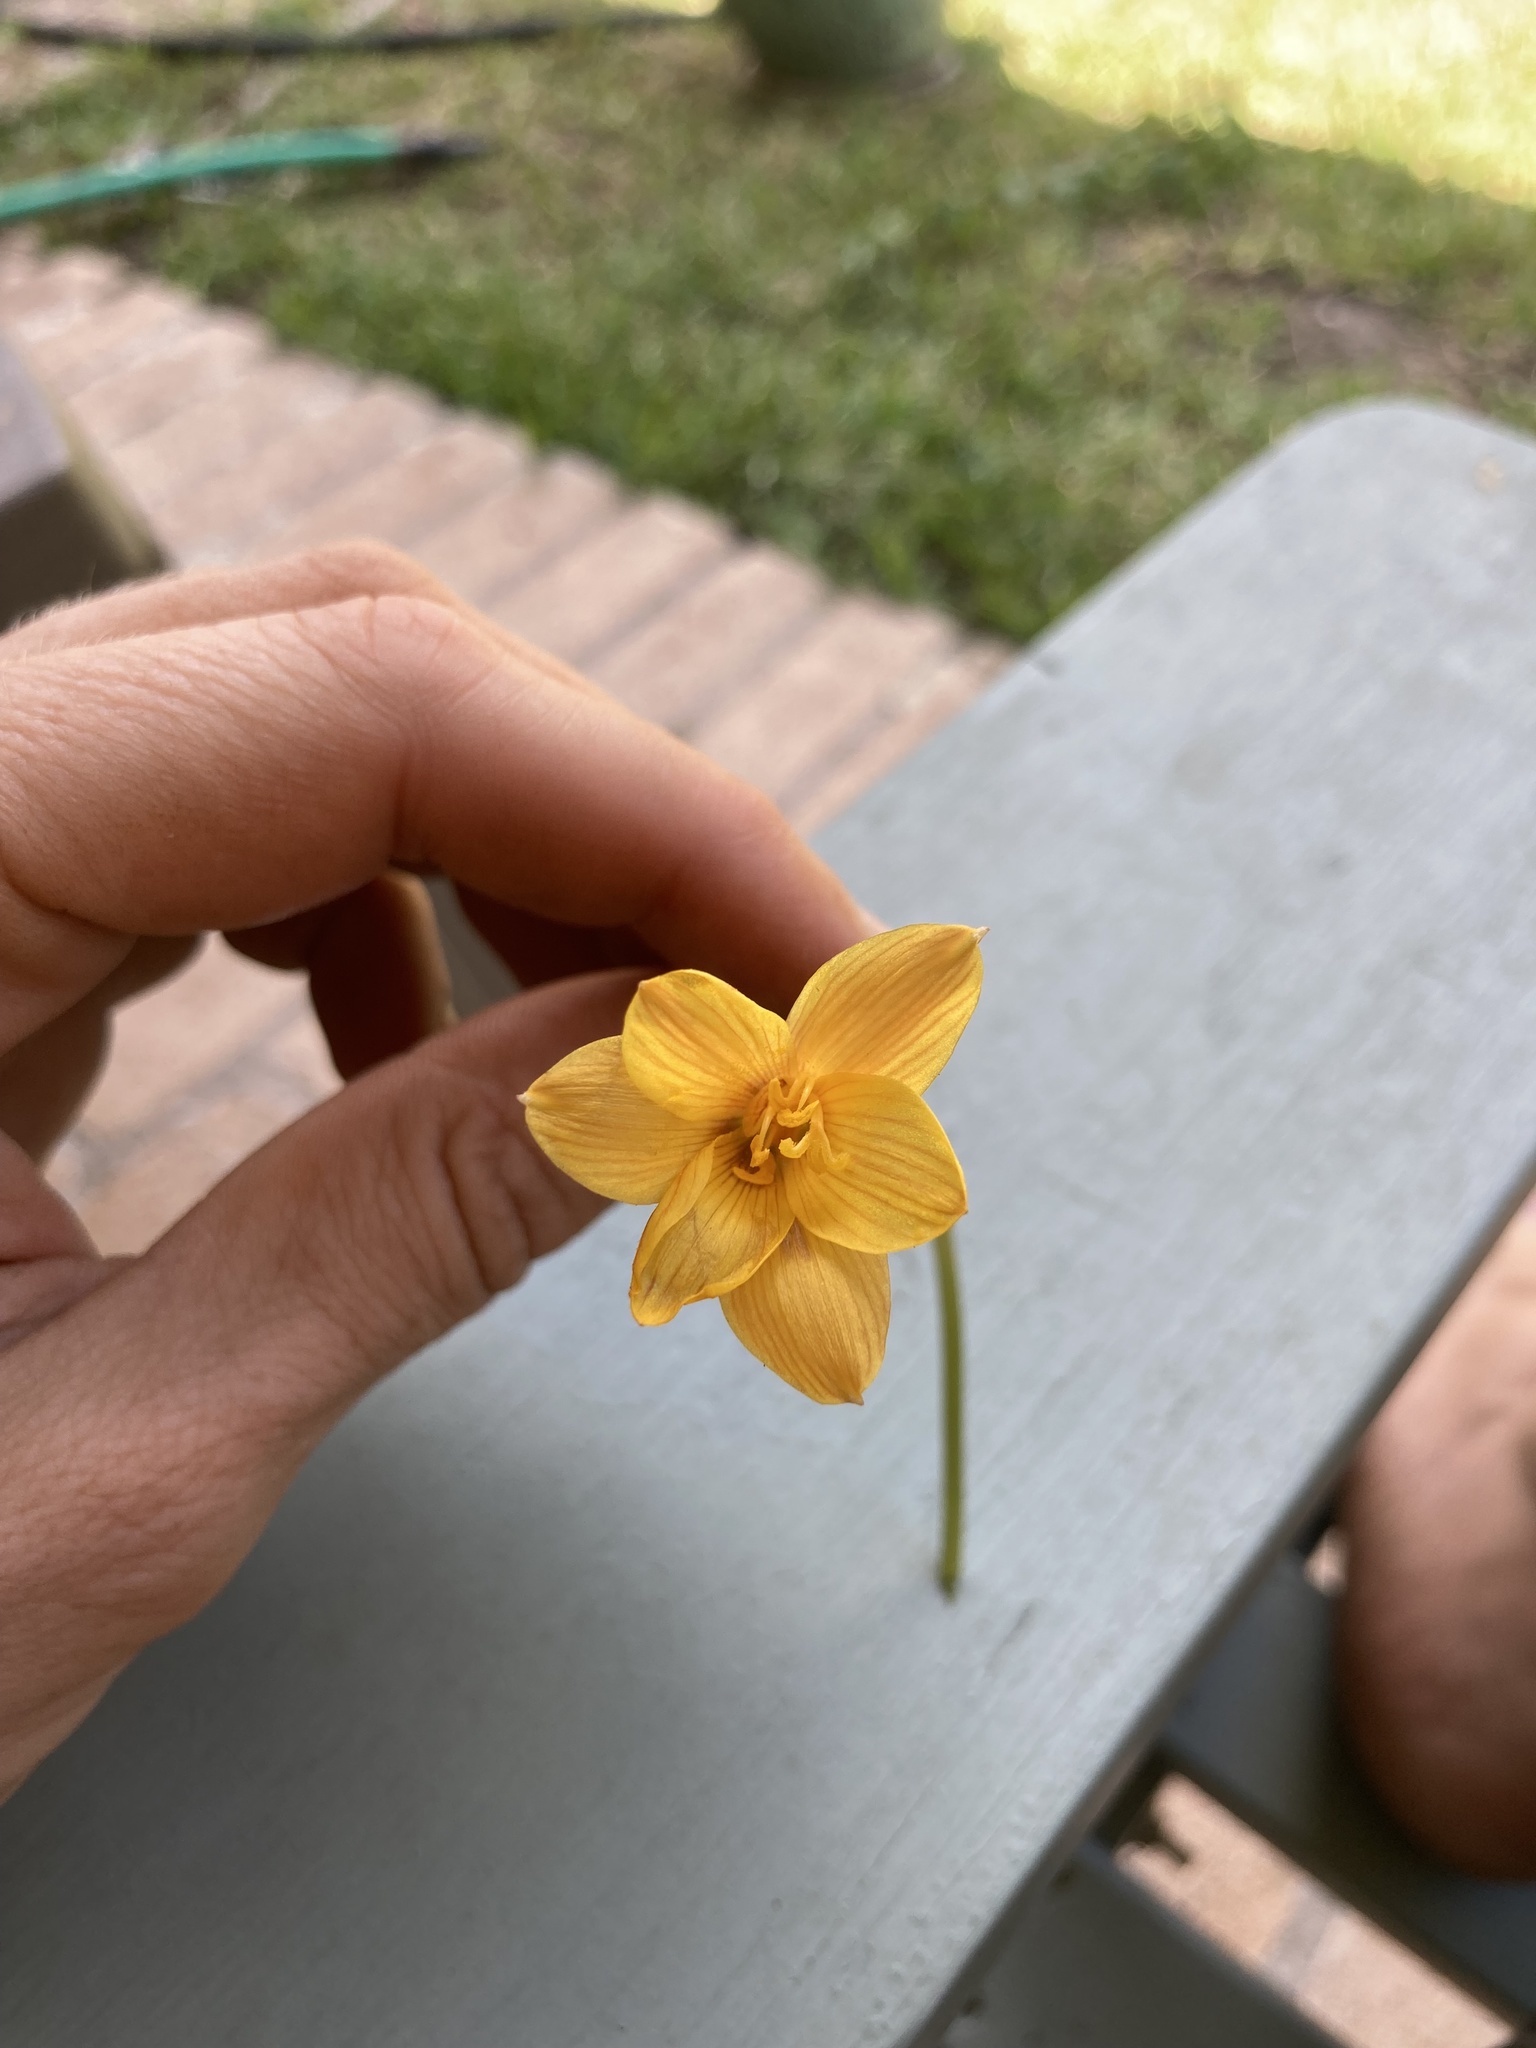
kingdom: Plantae
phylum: Tracheophyta
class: Liliopsida
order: Asparagales
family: Amaryllidaceae
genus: Zephyranthes
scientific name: Zephyranthes tubispatha
